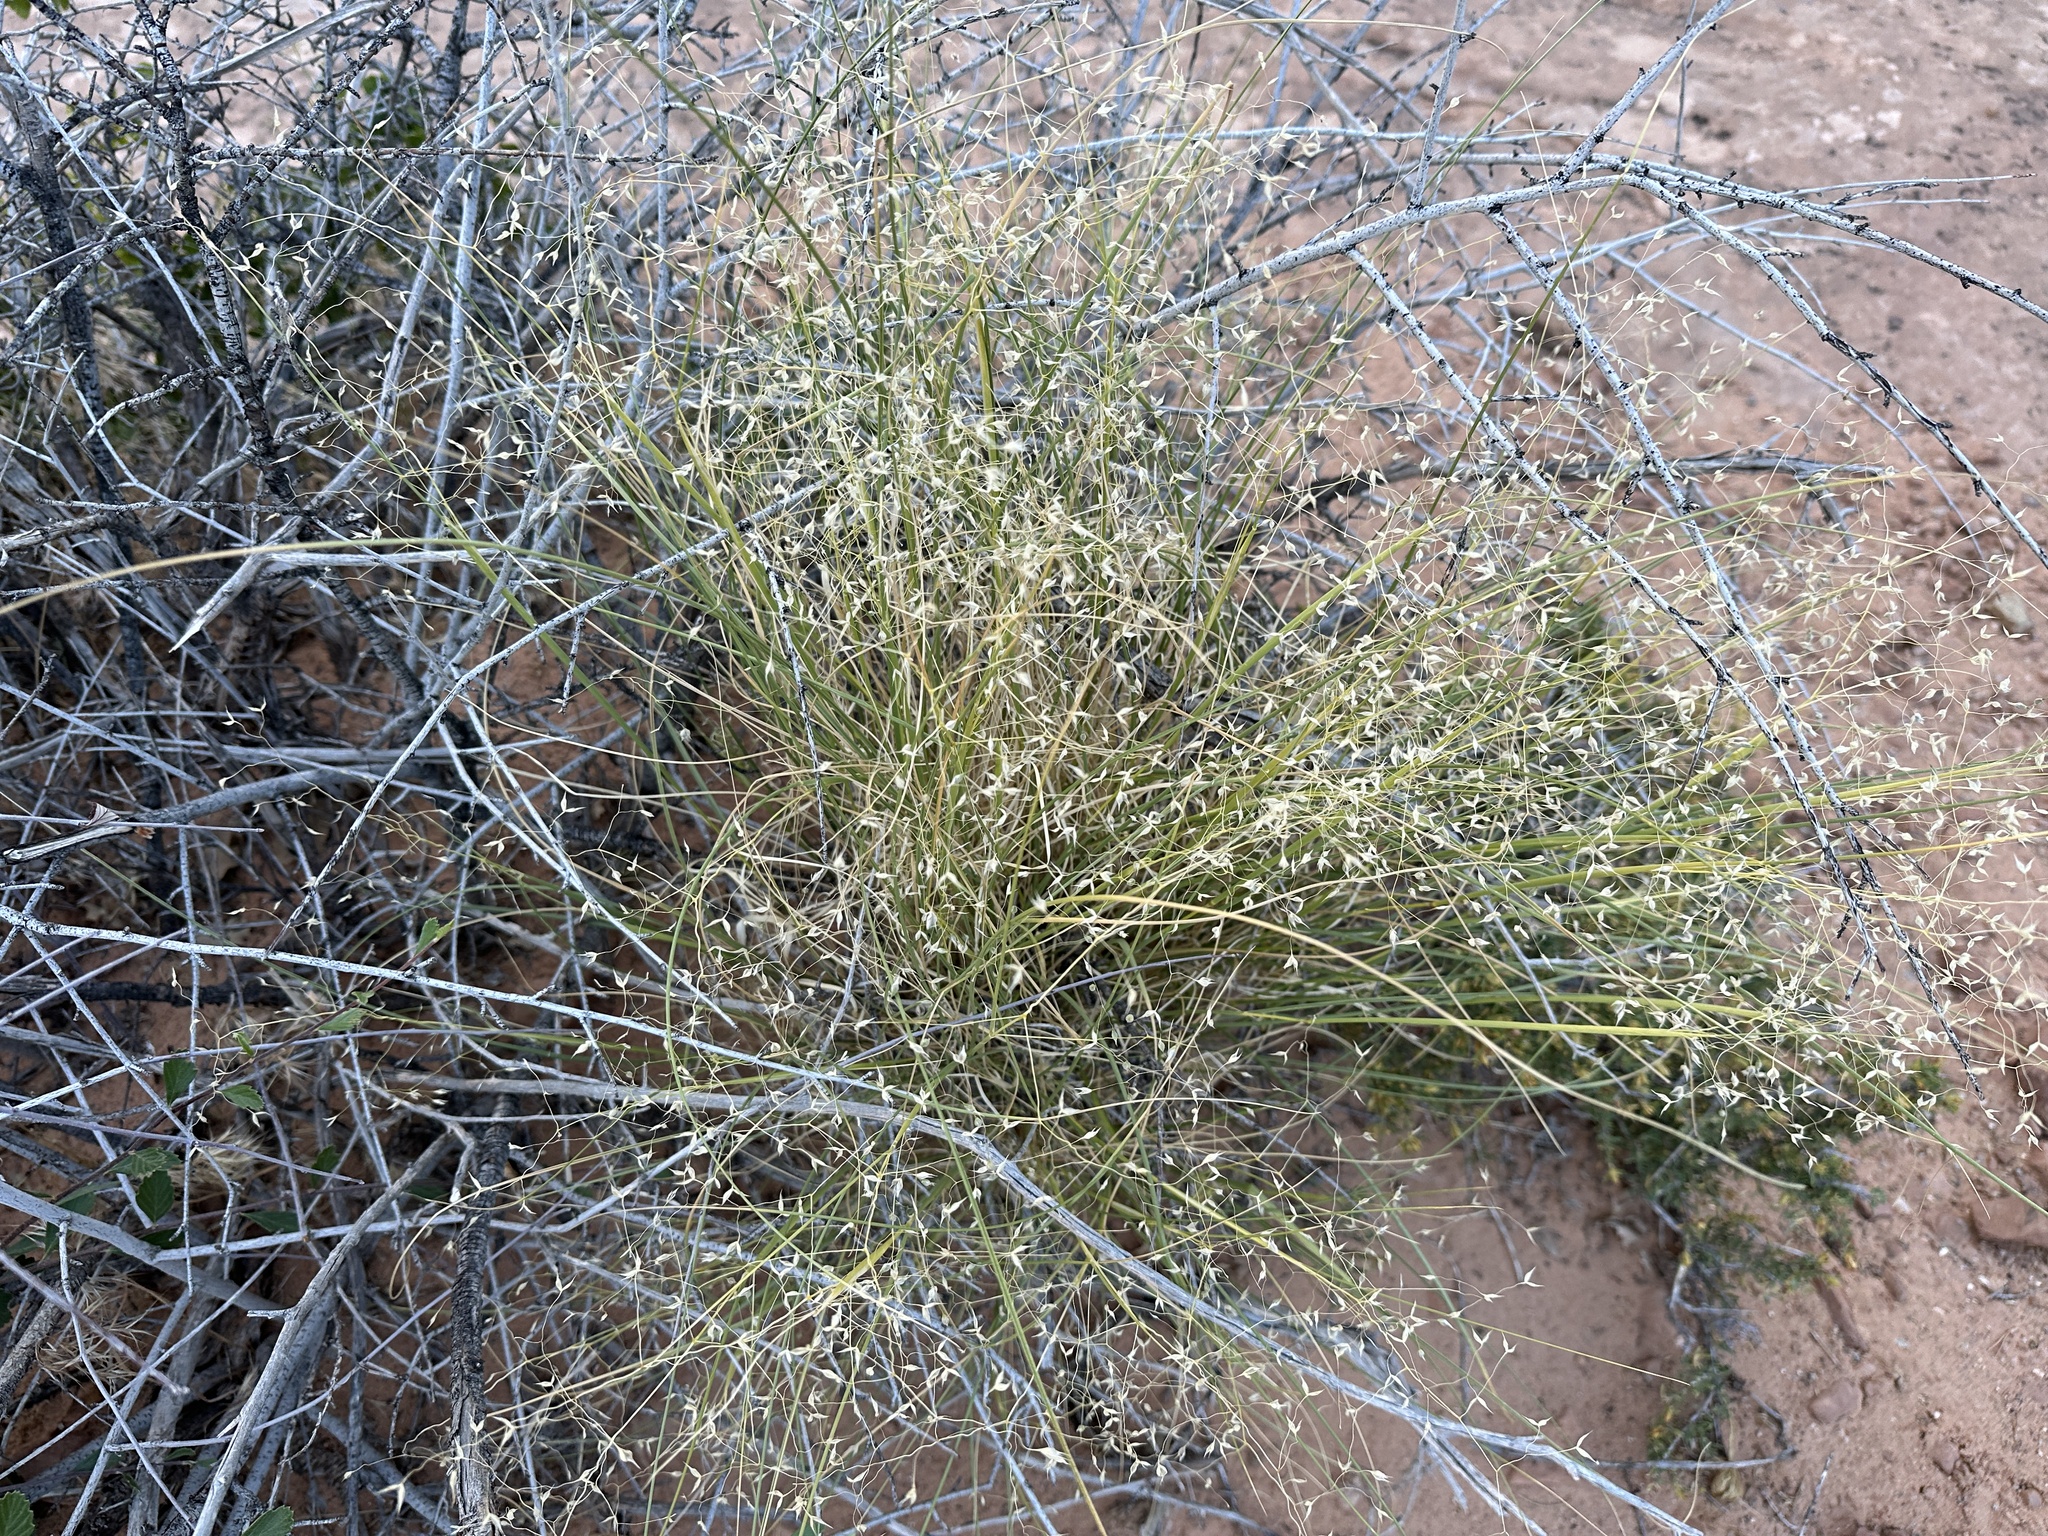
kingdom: Plantae
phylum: Tracheophyta
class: Liliopsida
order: Poales
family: Poaceae
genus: Eriocoma
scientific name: Eriocoma hymenoides
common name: Indian mountain ricegrass
